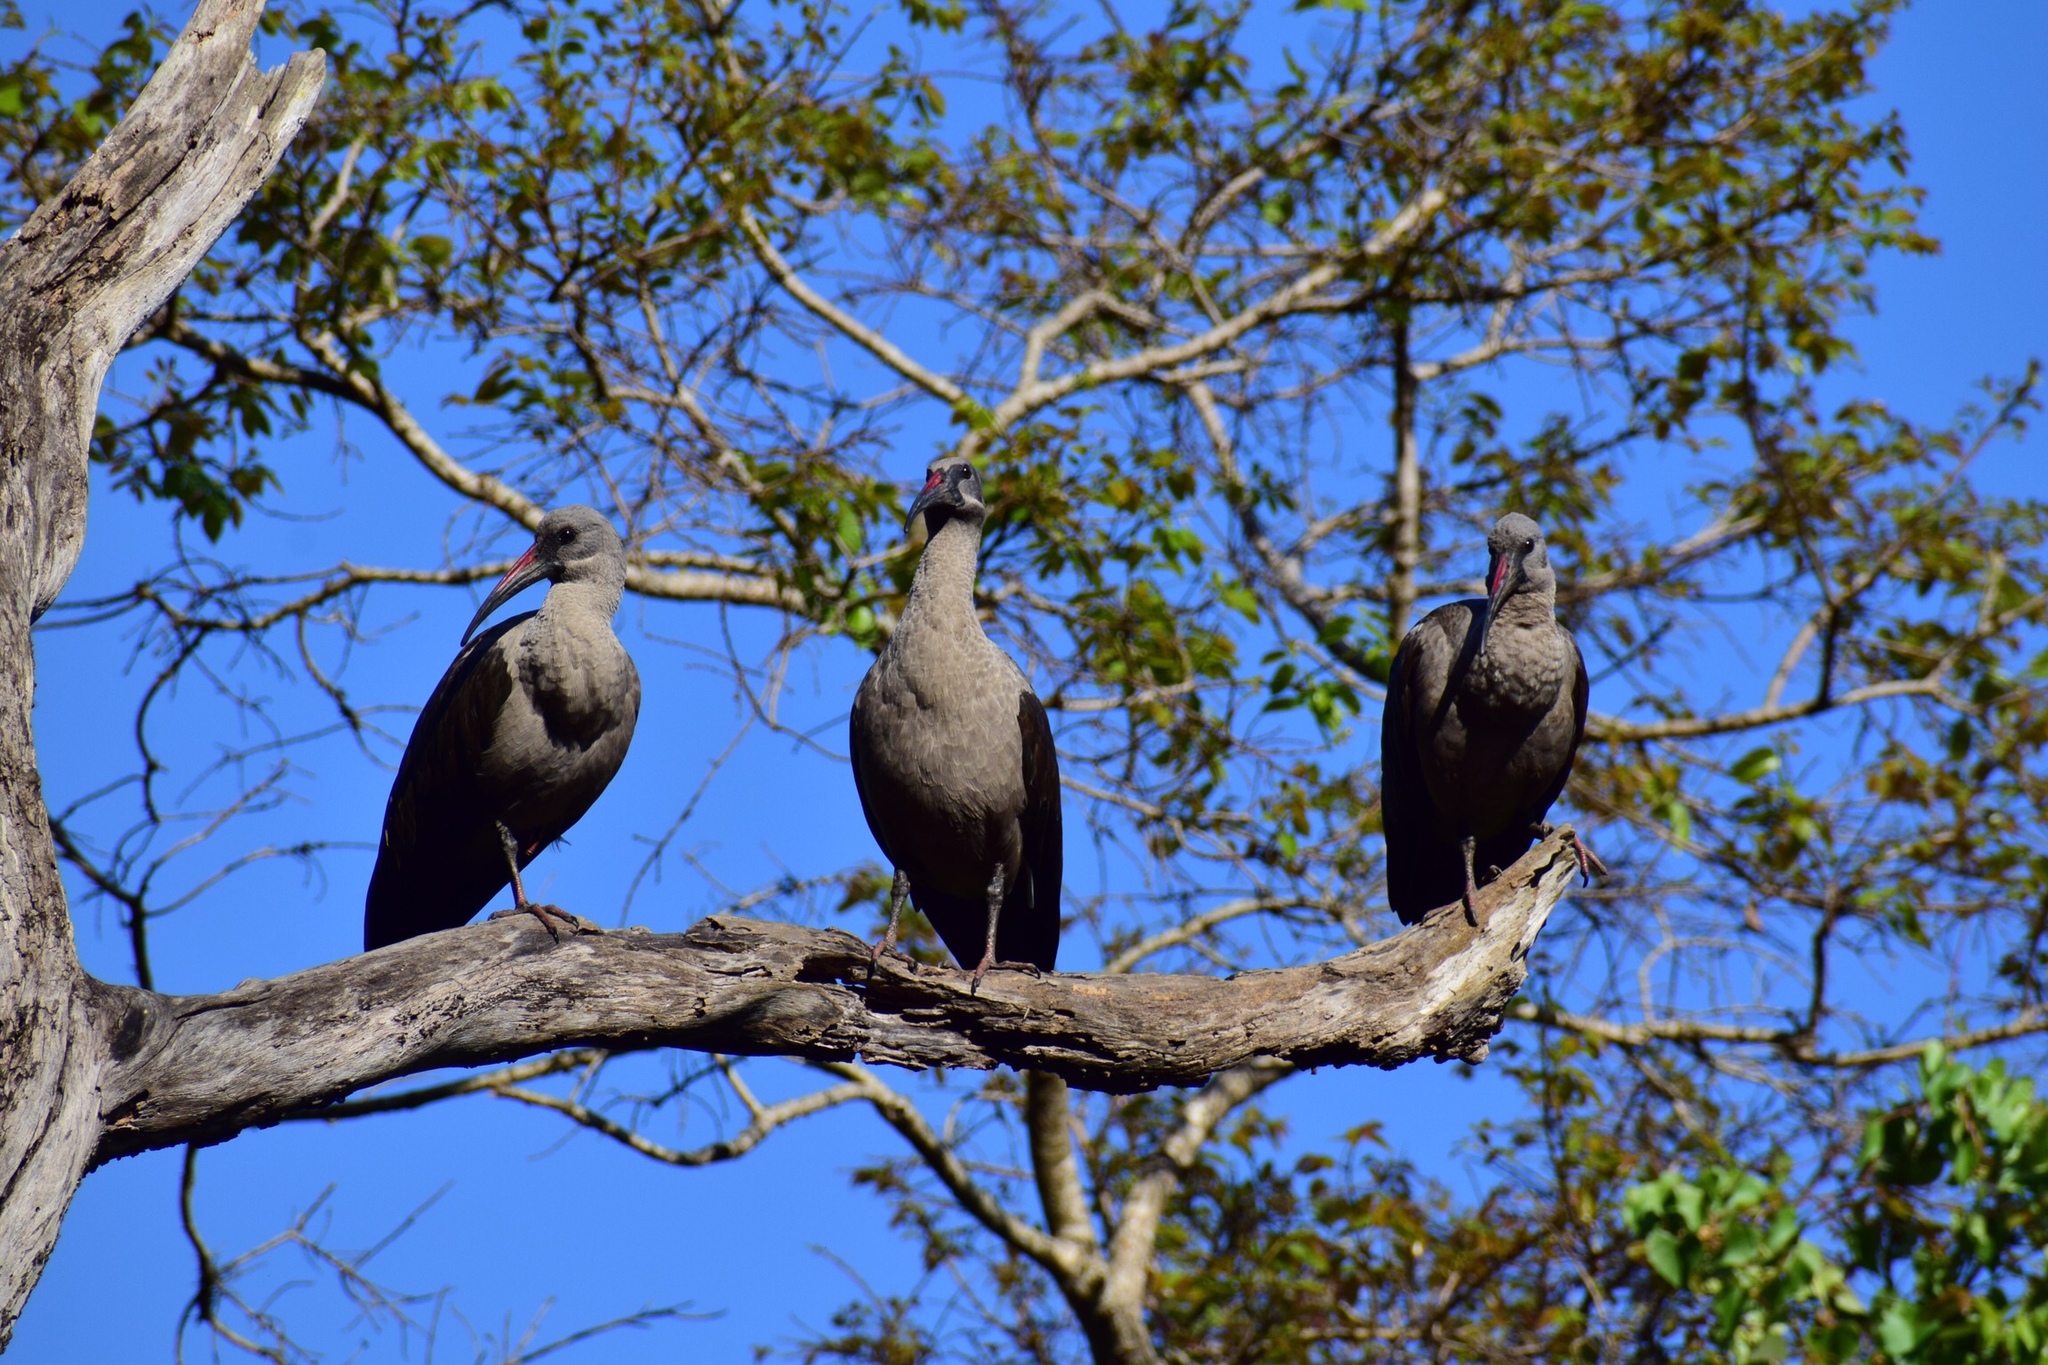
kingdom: Animalia
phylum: Chordata
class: Aves
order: Pelecaniformes
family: Threskiornithidae
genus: Bostrychia
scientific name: Bostrychia hagedash
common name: Hadada ibis
